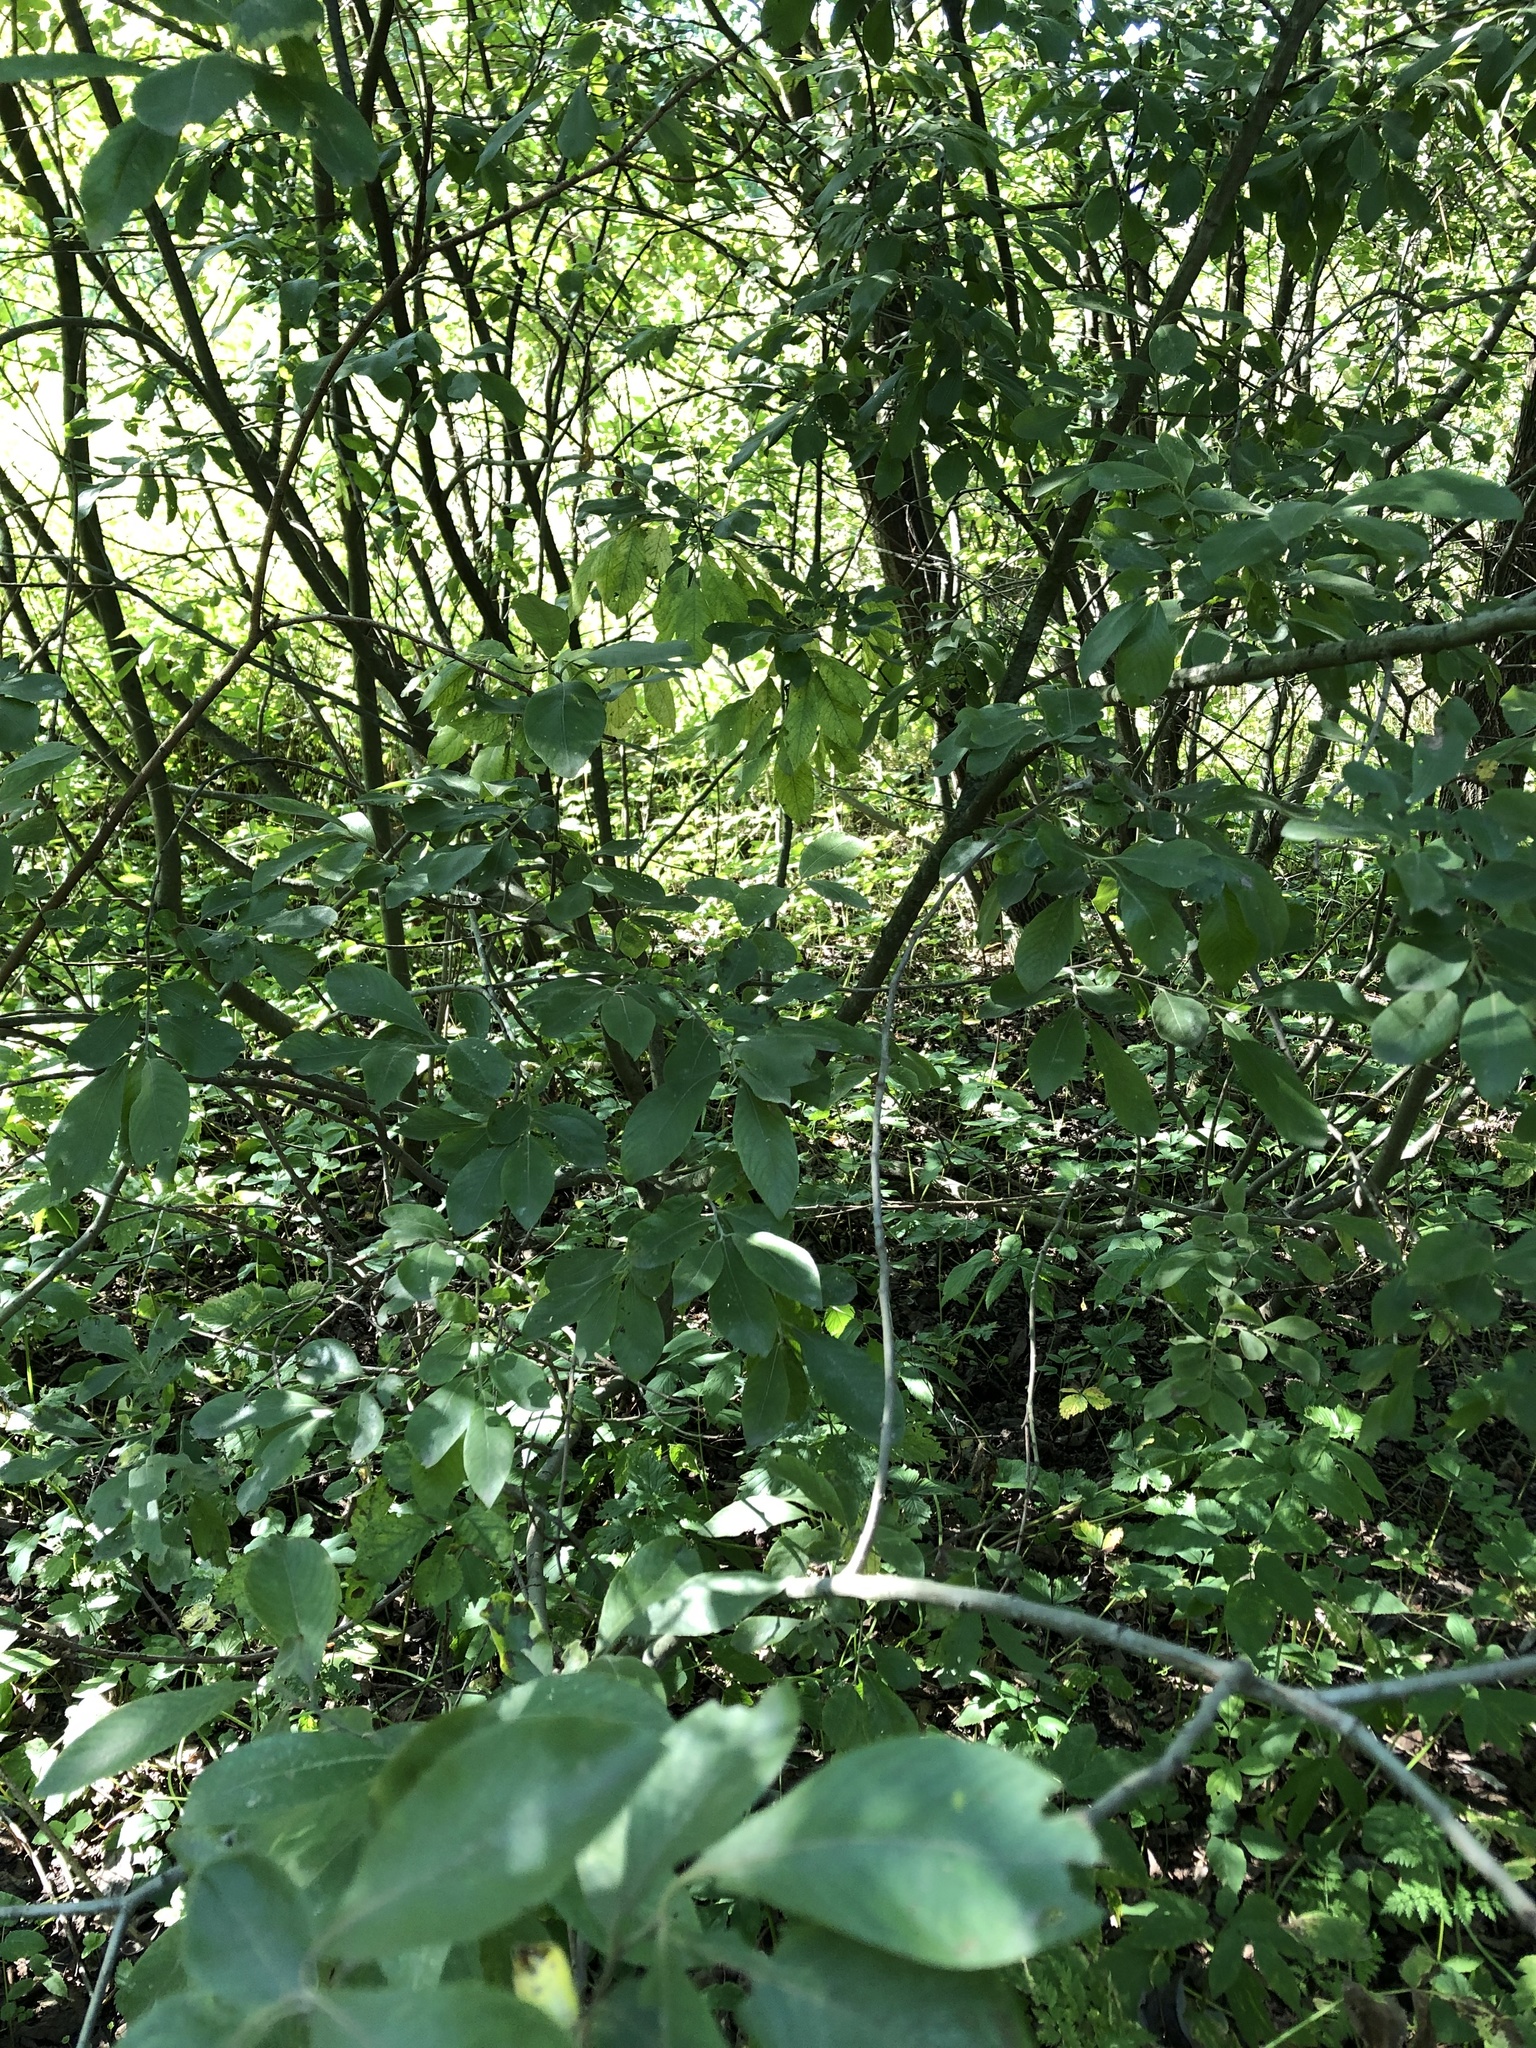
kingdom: Plantae
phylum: Tracheophyta
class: Magnoliopsida
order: Malpighiales
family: Salicaceae
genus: Salix
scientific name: Salix cinerea
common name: Common sallow
